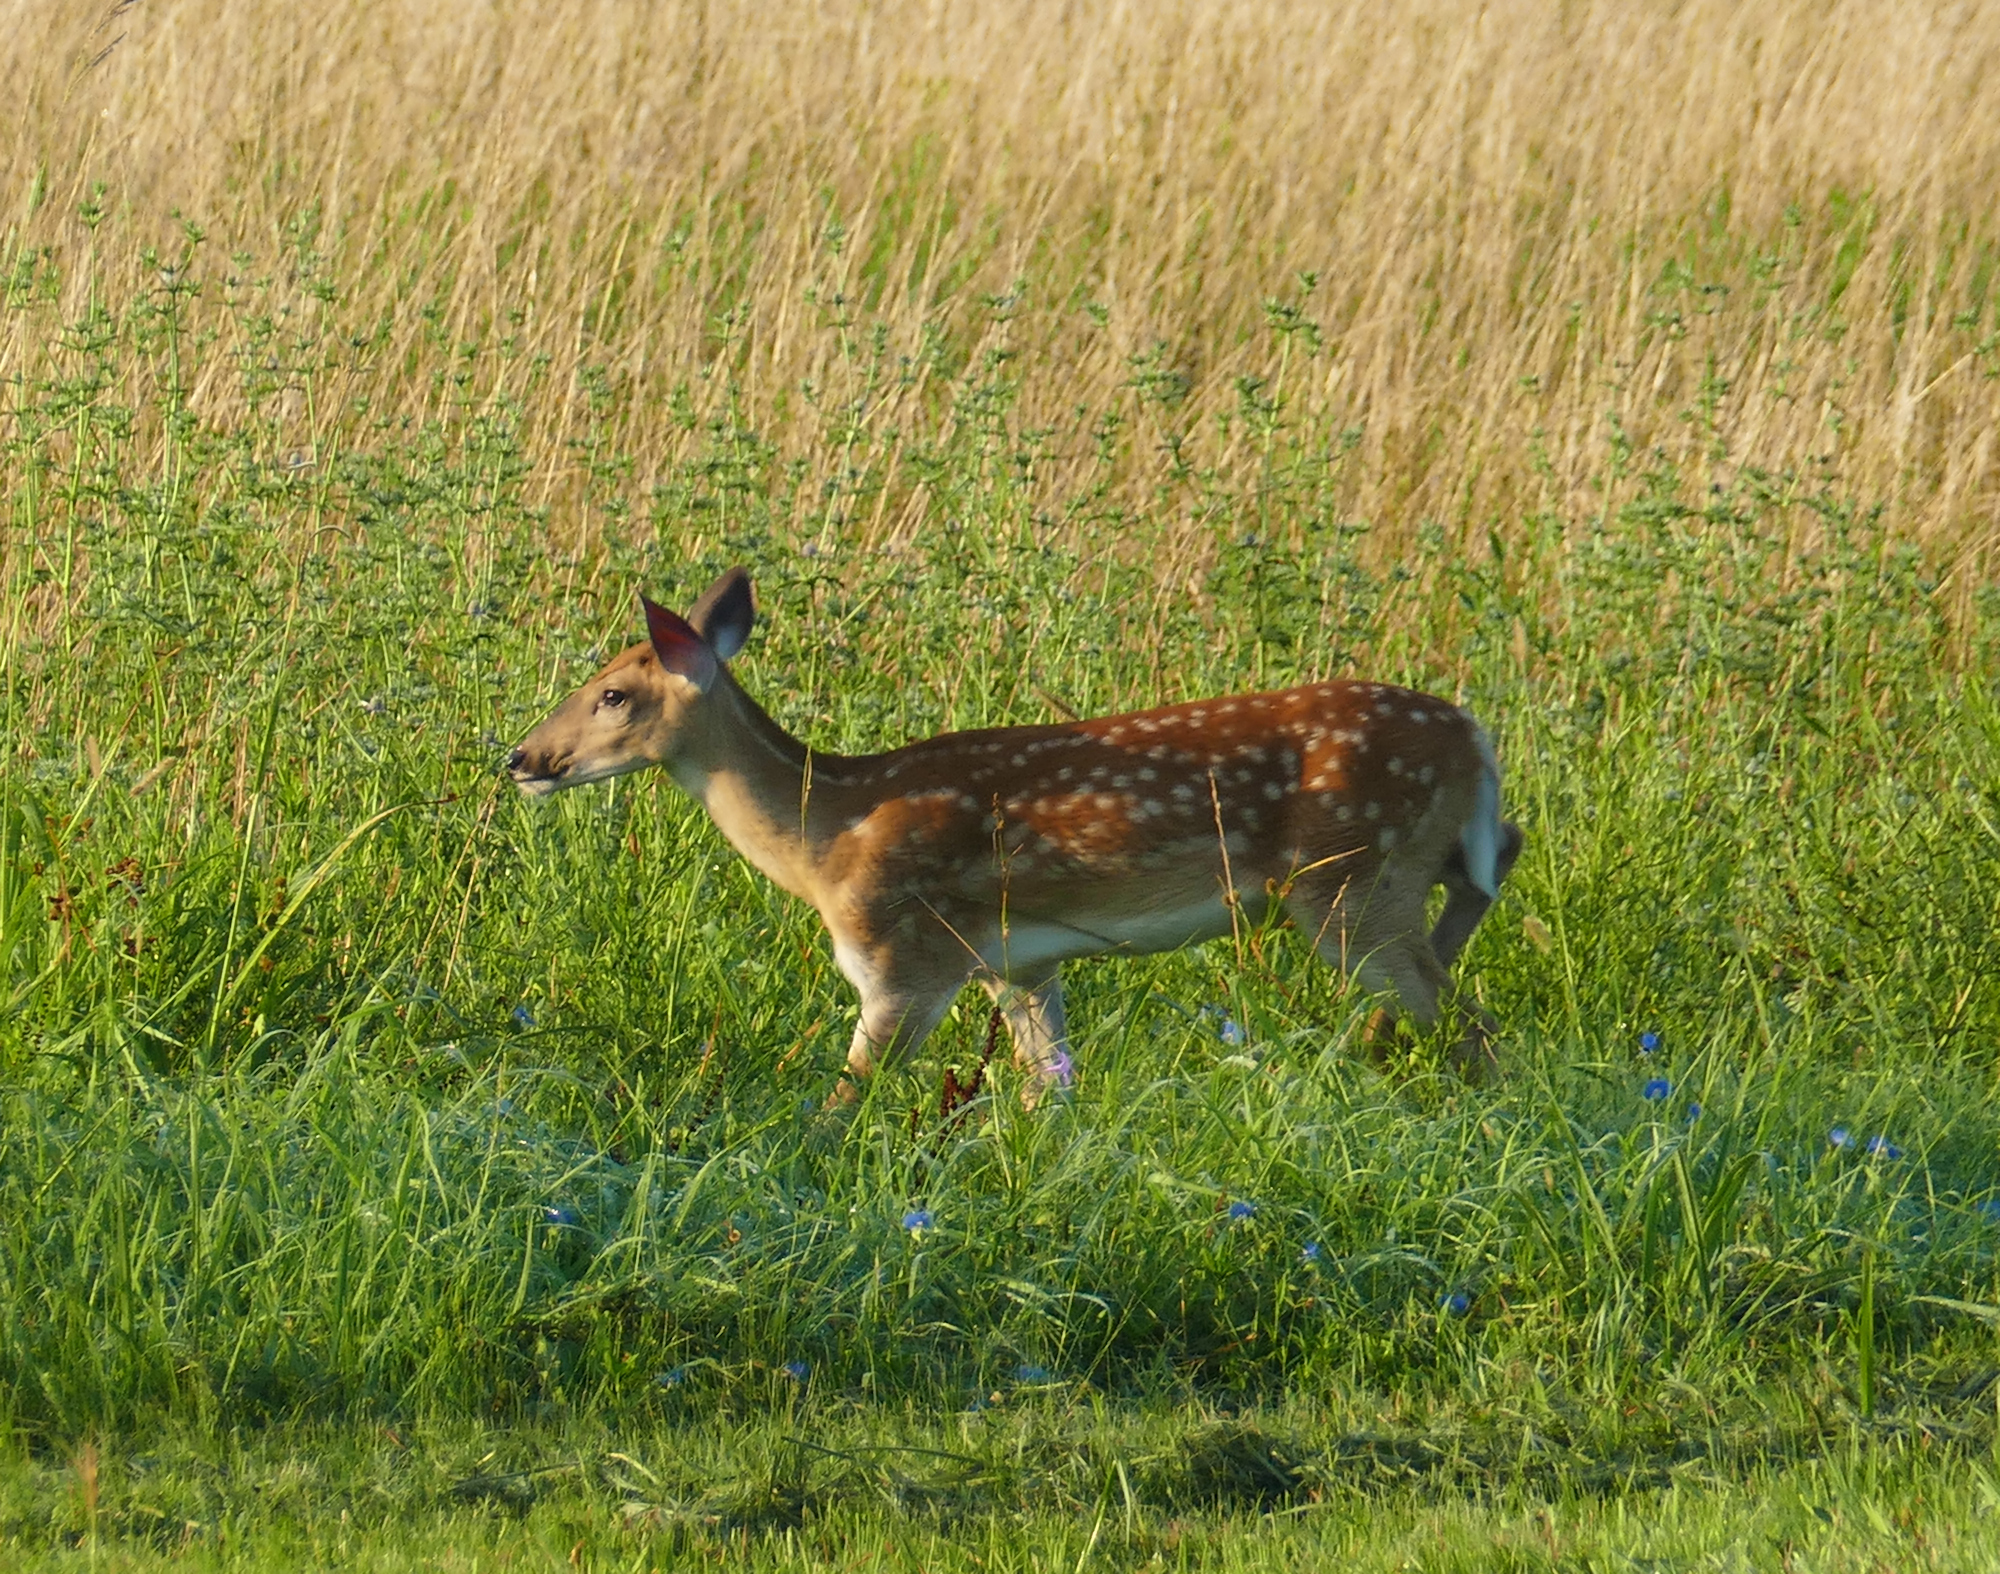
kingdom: Animalia
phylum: Chordata
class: Mammalia
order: Artiodactyla
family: Cervidae
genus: Odocoileus
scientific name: Odocoileus virginianus
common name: White-tailed deer
